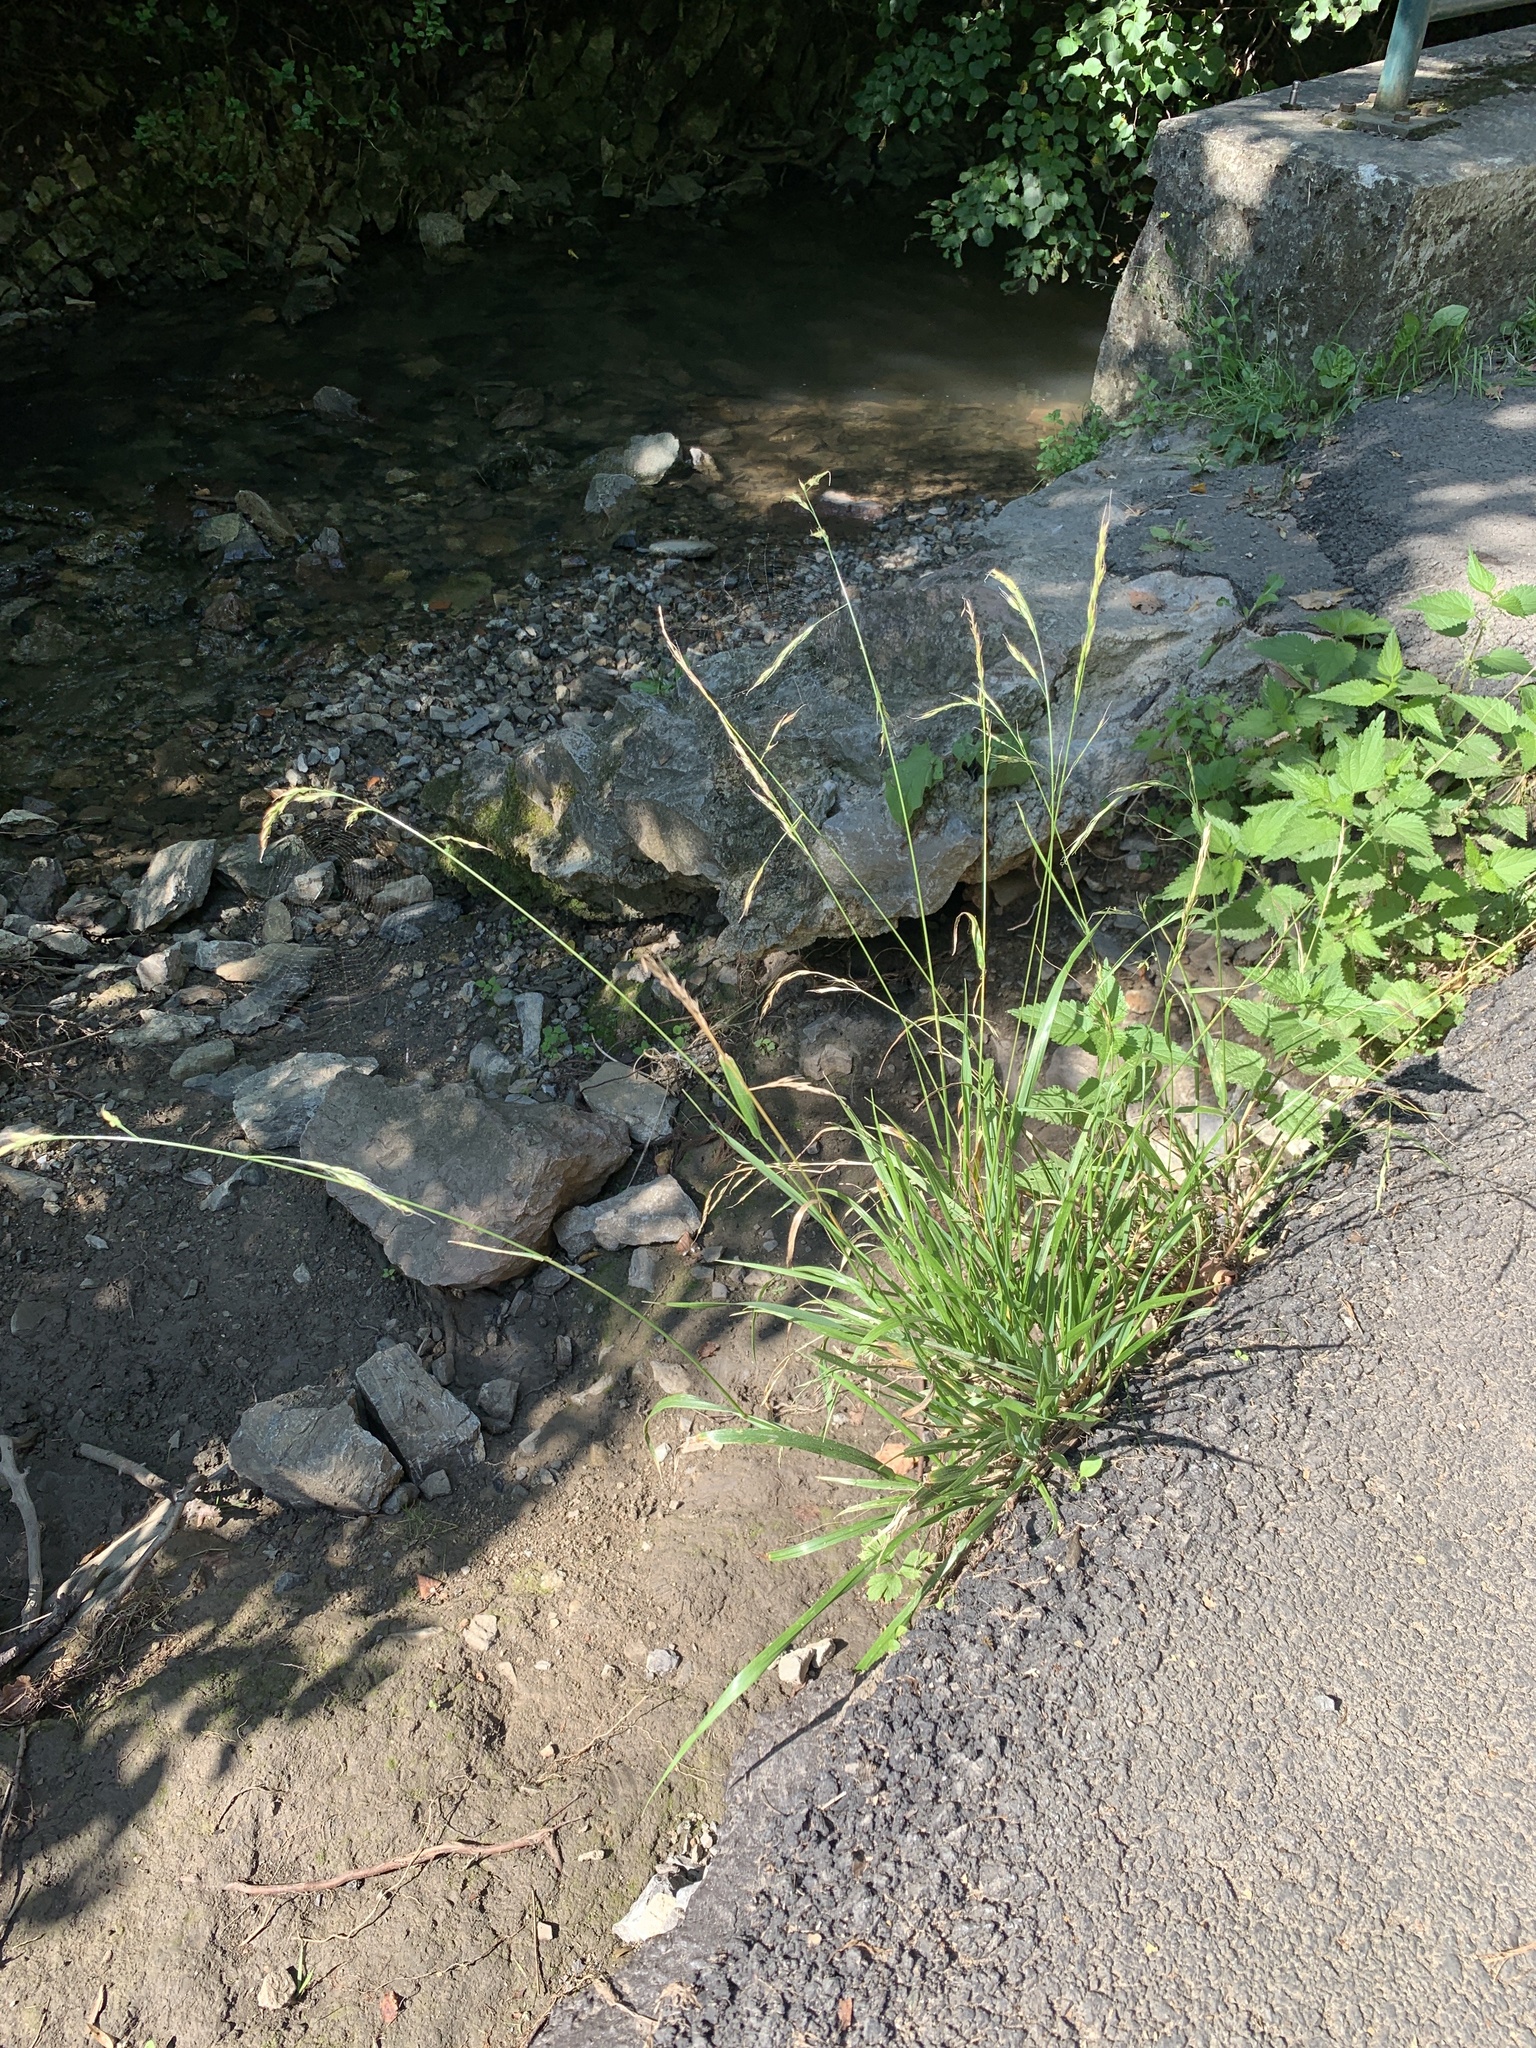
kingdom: Plantae
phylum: Tracheophyta
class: Liliopsida
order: Poales
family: Poaceae
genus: Lolium
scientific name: Lolium giganteum
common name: Giant fescue
